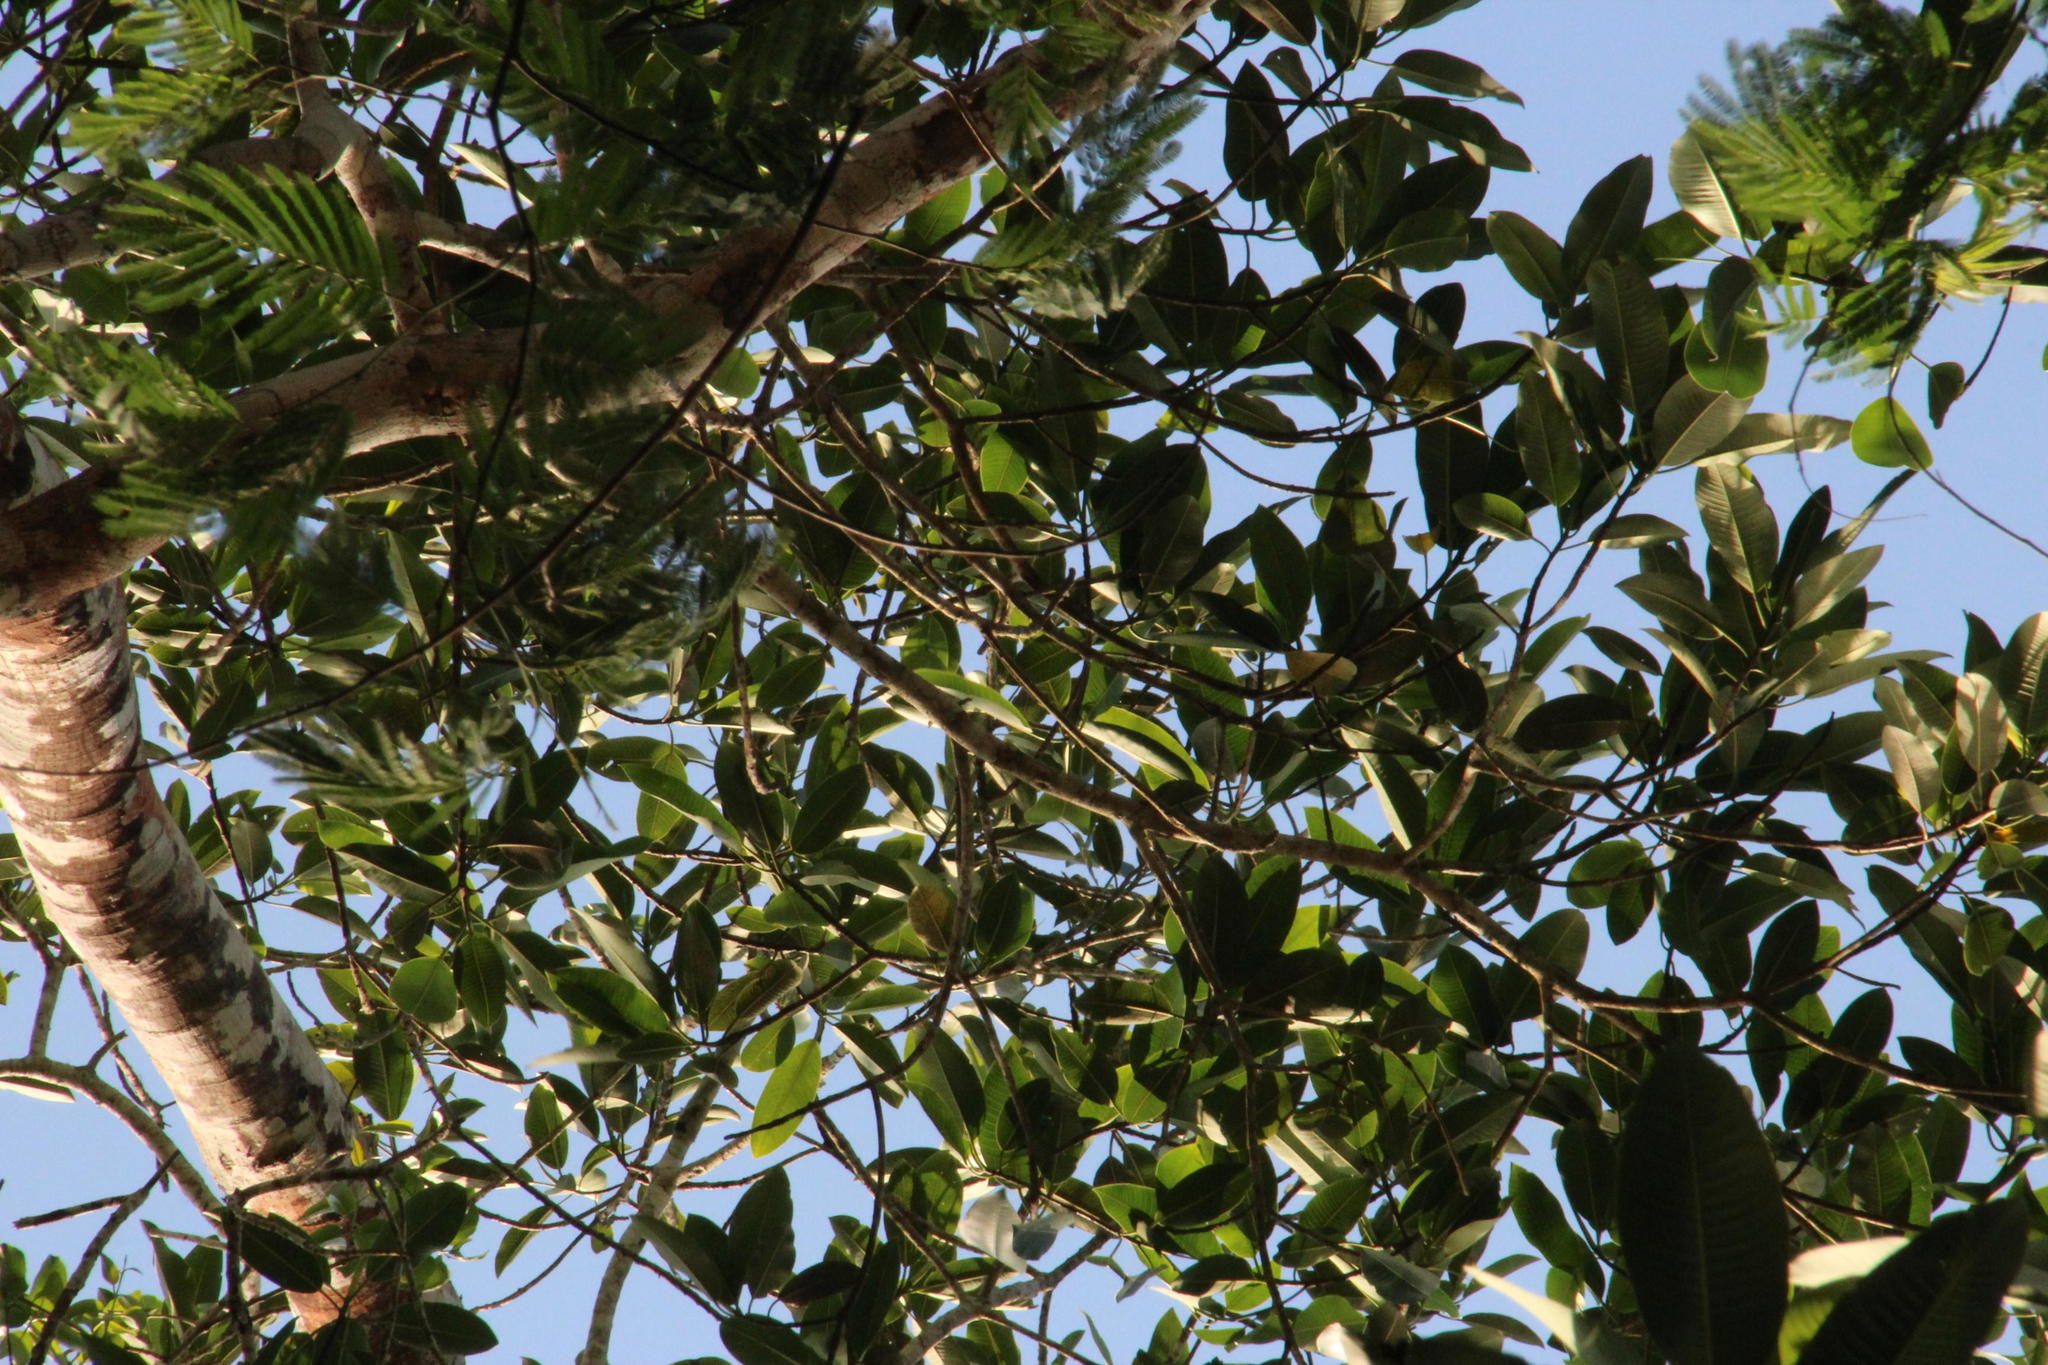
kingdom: Plantae
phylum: Tracheophyta
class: Magnoliopsida
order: Rosales
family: Moraceae
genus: Ficus
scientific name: Ficus insipida
